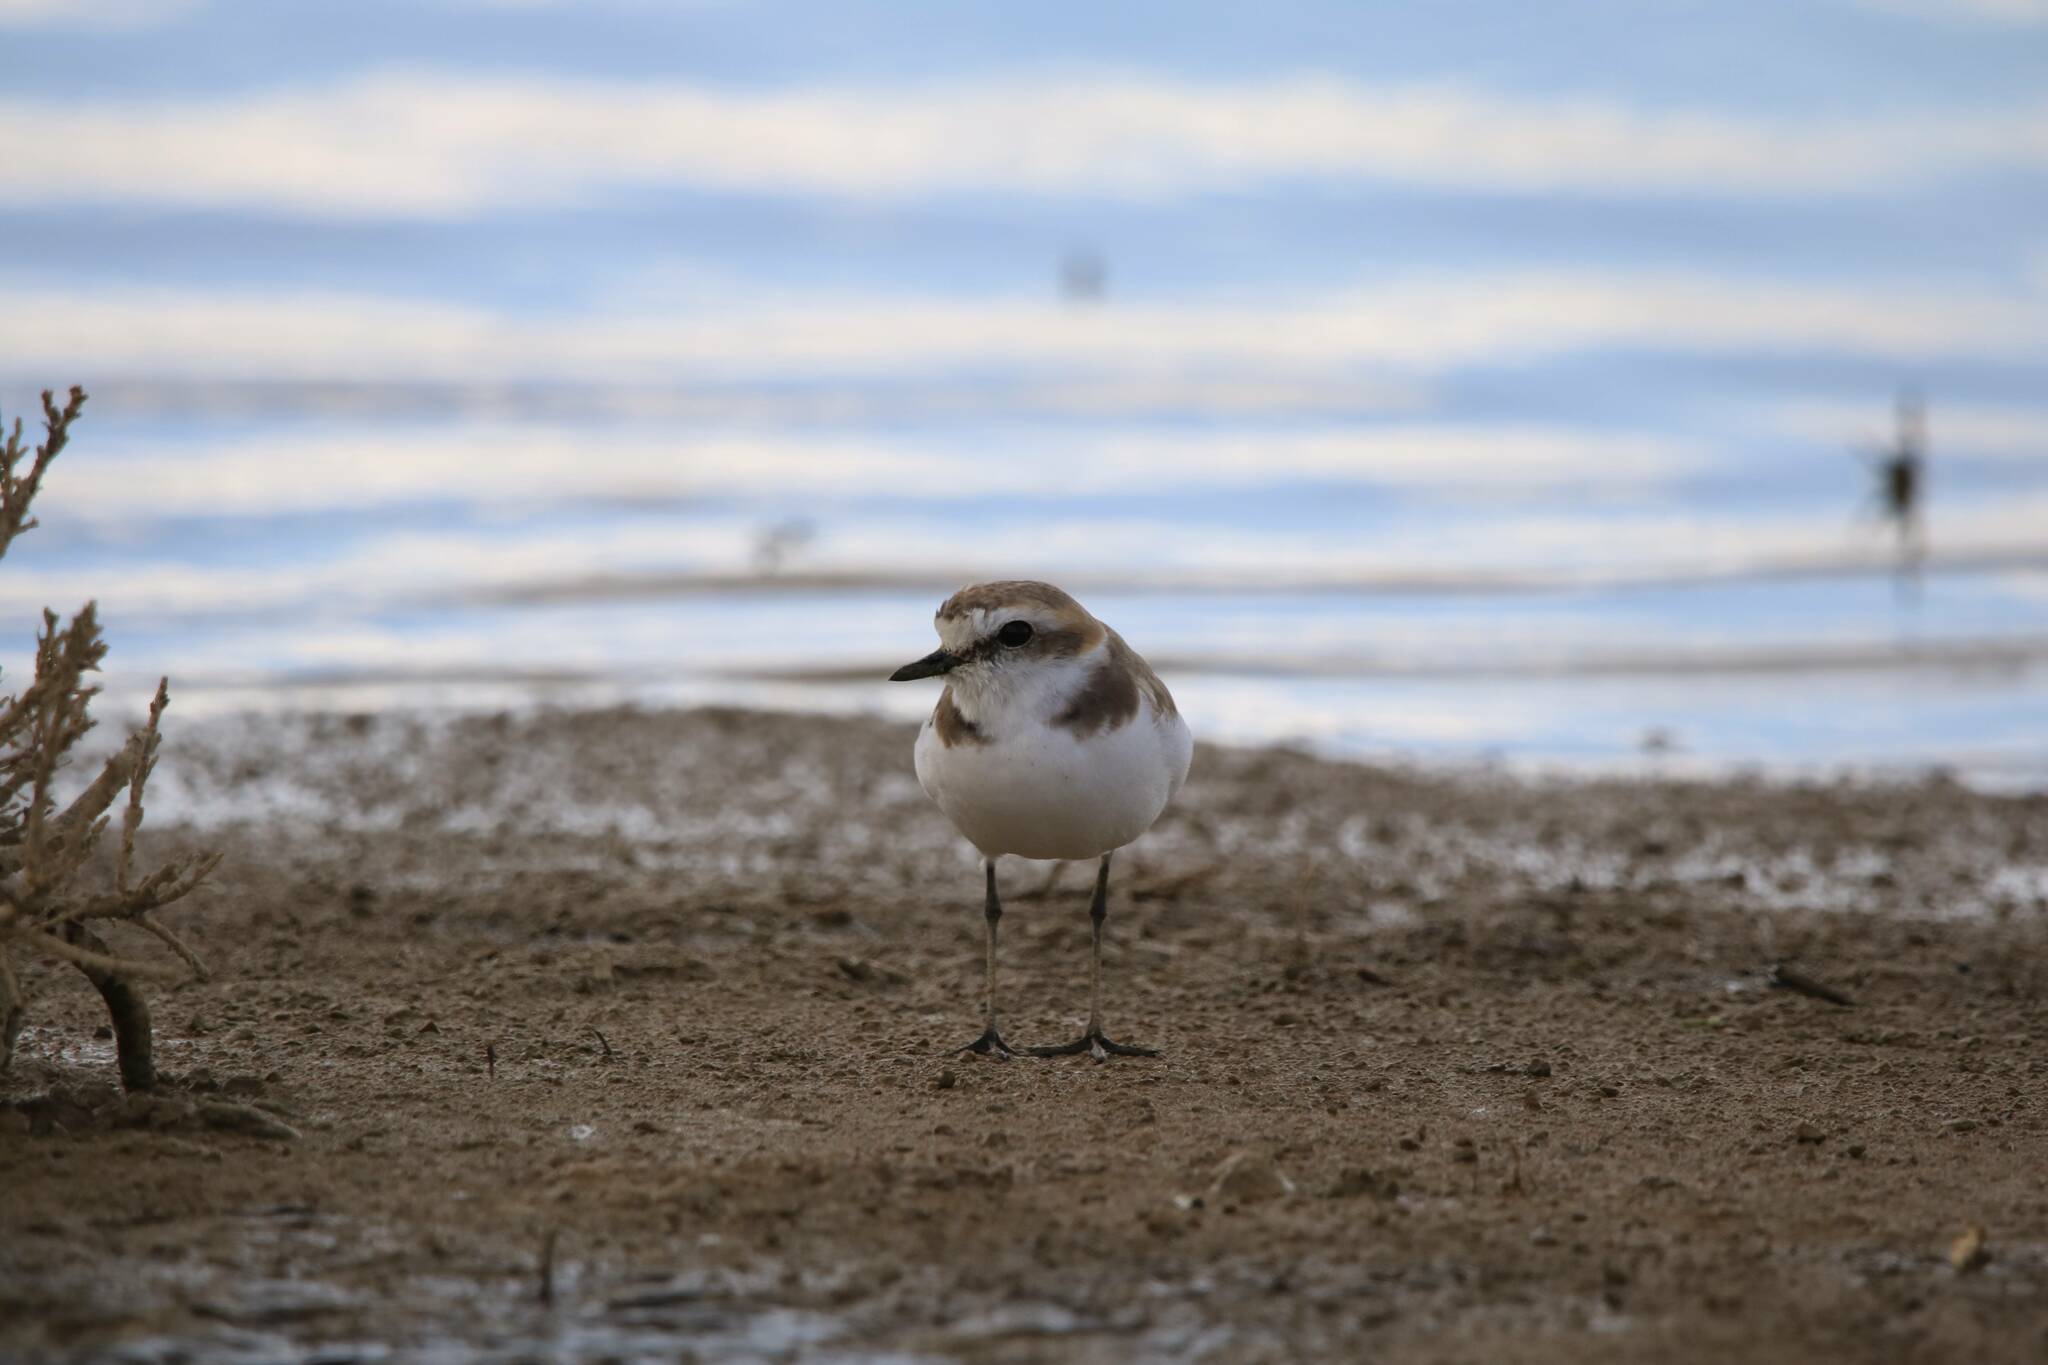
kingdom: Animalia
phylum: Chordata
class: Aves
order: Charadriiformes
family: Charadriidae
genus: Charadrius
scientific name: Charadrius alexandrinus
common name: Kentish plover
